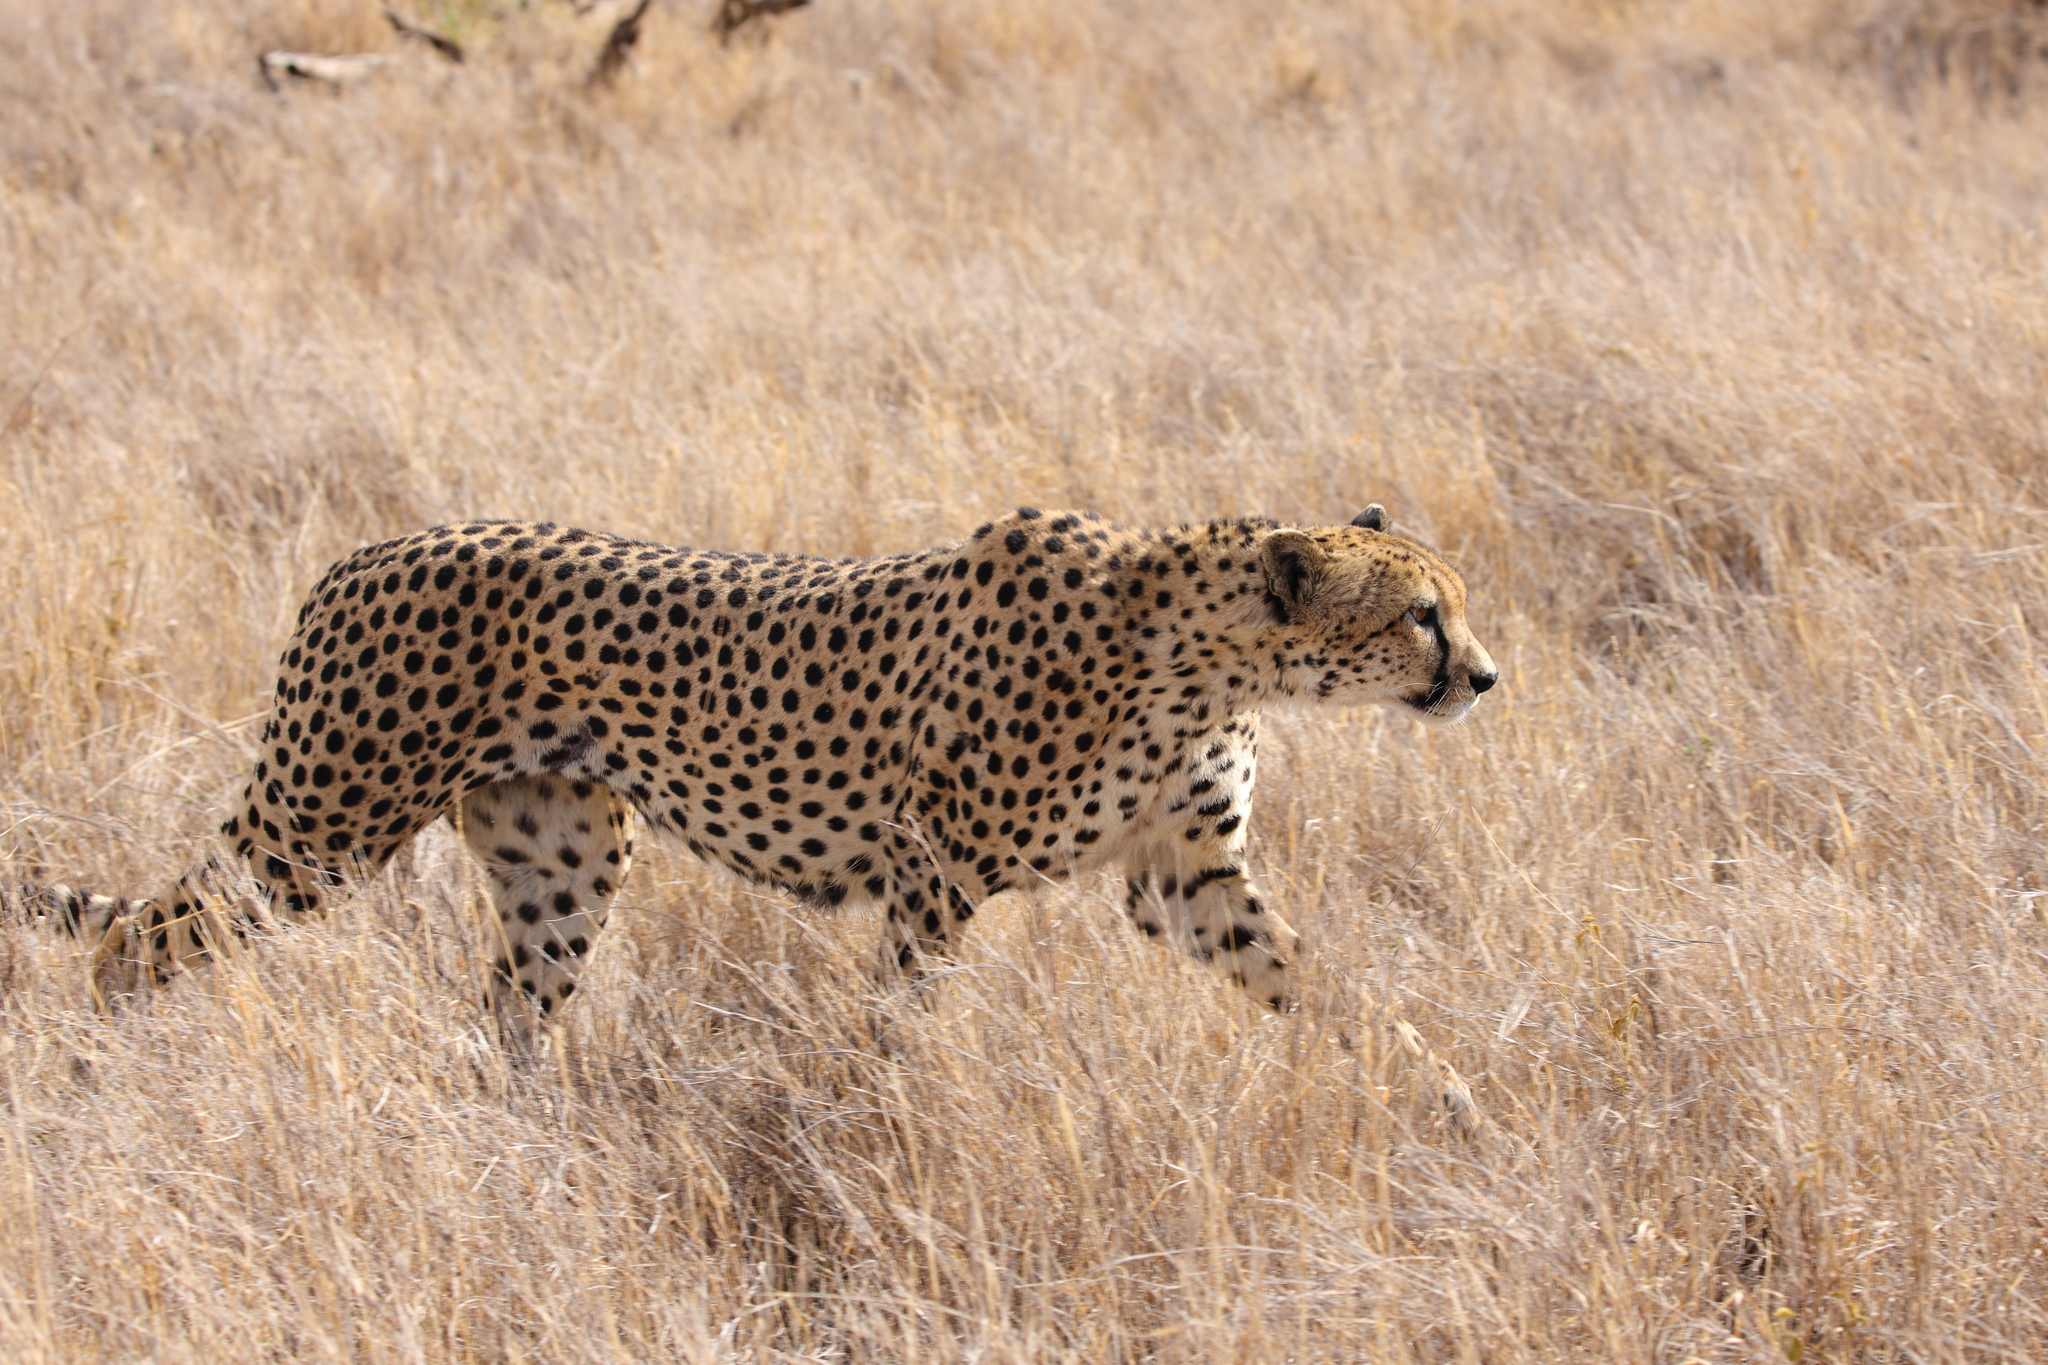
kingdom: Animalia
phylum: Chordata
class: Mammalia
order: Carnivora
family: Felidae
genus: Acinonyx
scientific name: Acinonyx jubatus
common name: Cheetah
